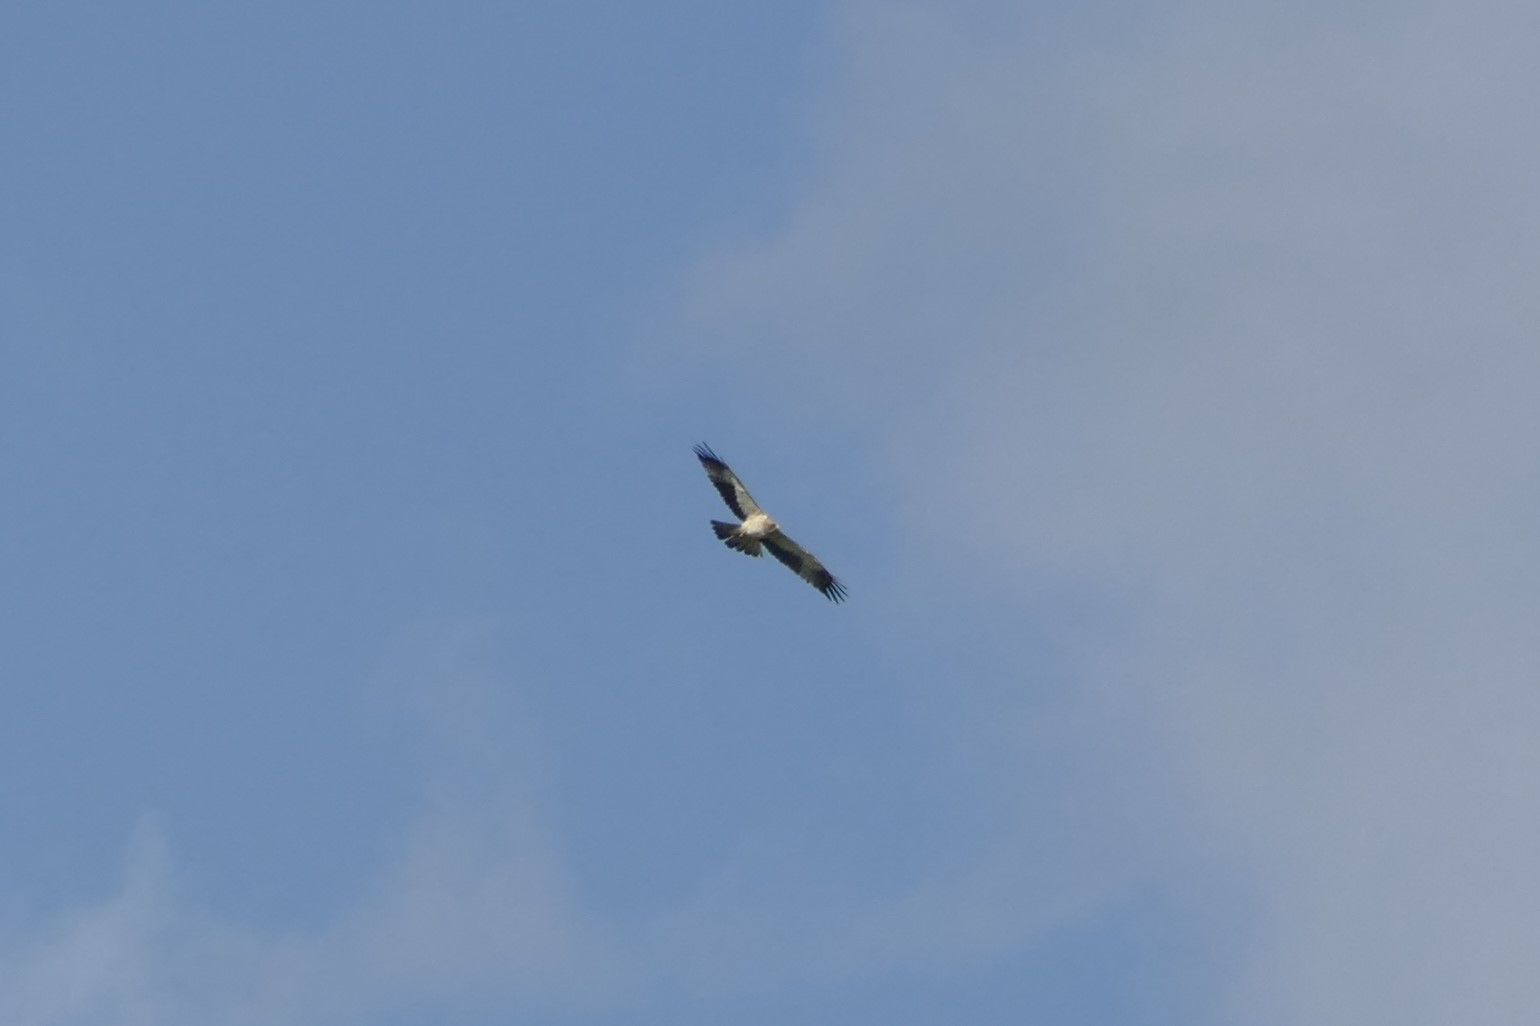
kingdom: Animalia
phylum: Chordata
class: Aves
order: Accipitriformes
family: Accipitridae
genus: Hieraaetus
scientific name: Hieraaetus pennatus
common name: Booted eagle
